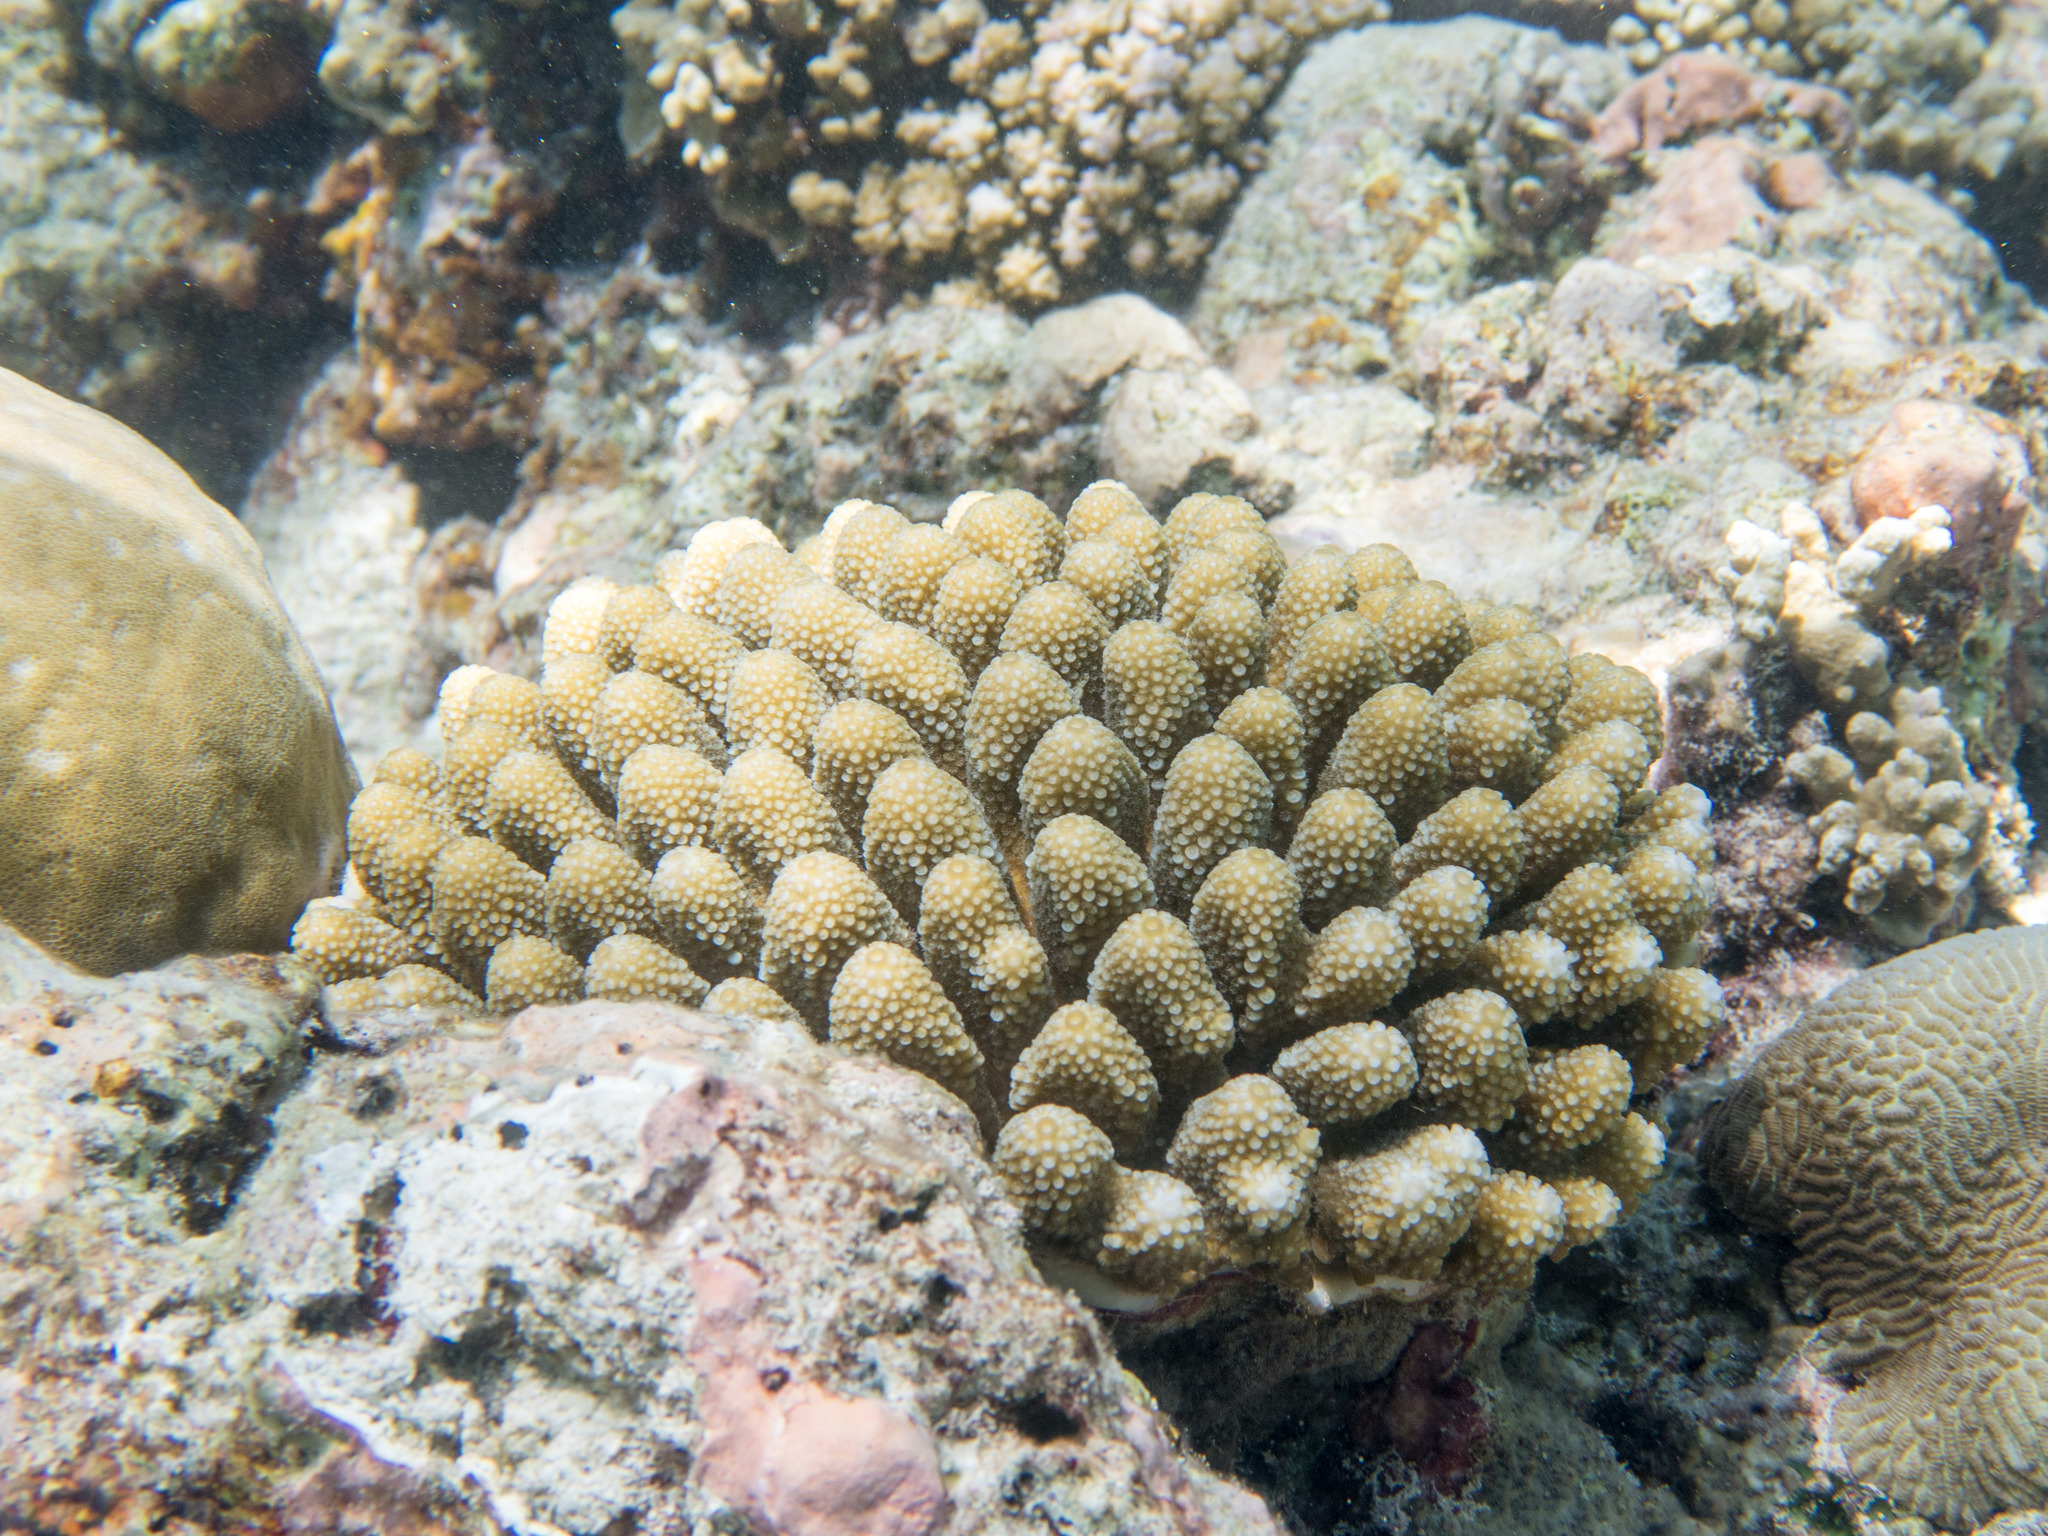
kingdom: Animalia
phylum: Cnidaria
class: Anthozoa
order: Scleractinia
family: Acroporidae
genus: Acropora
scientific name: Acropora monticulosa
